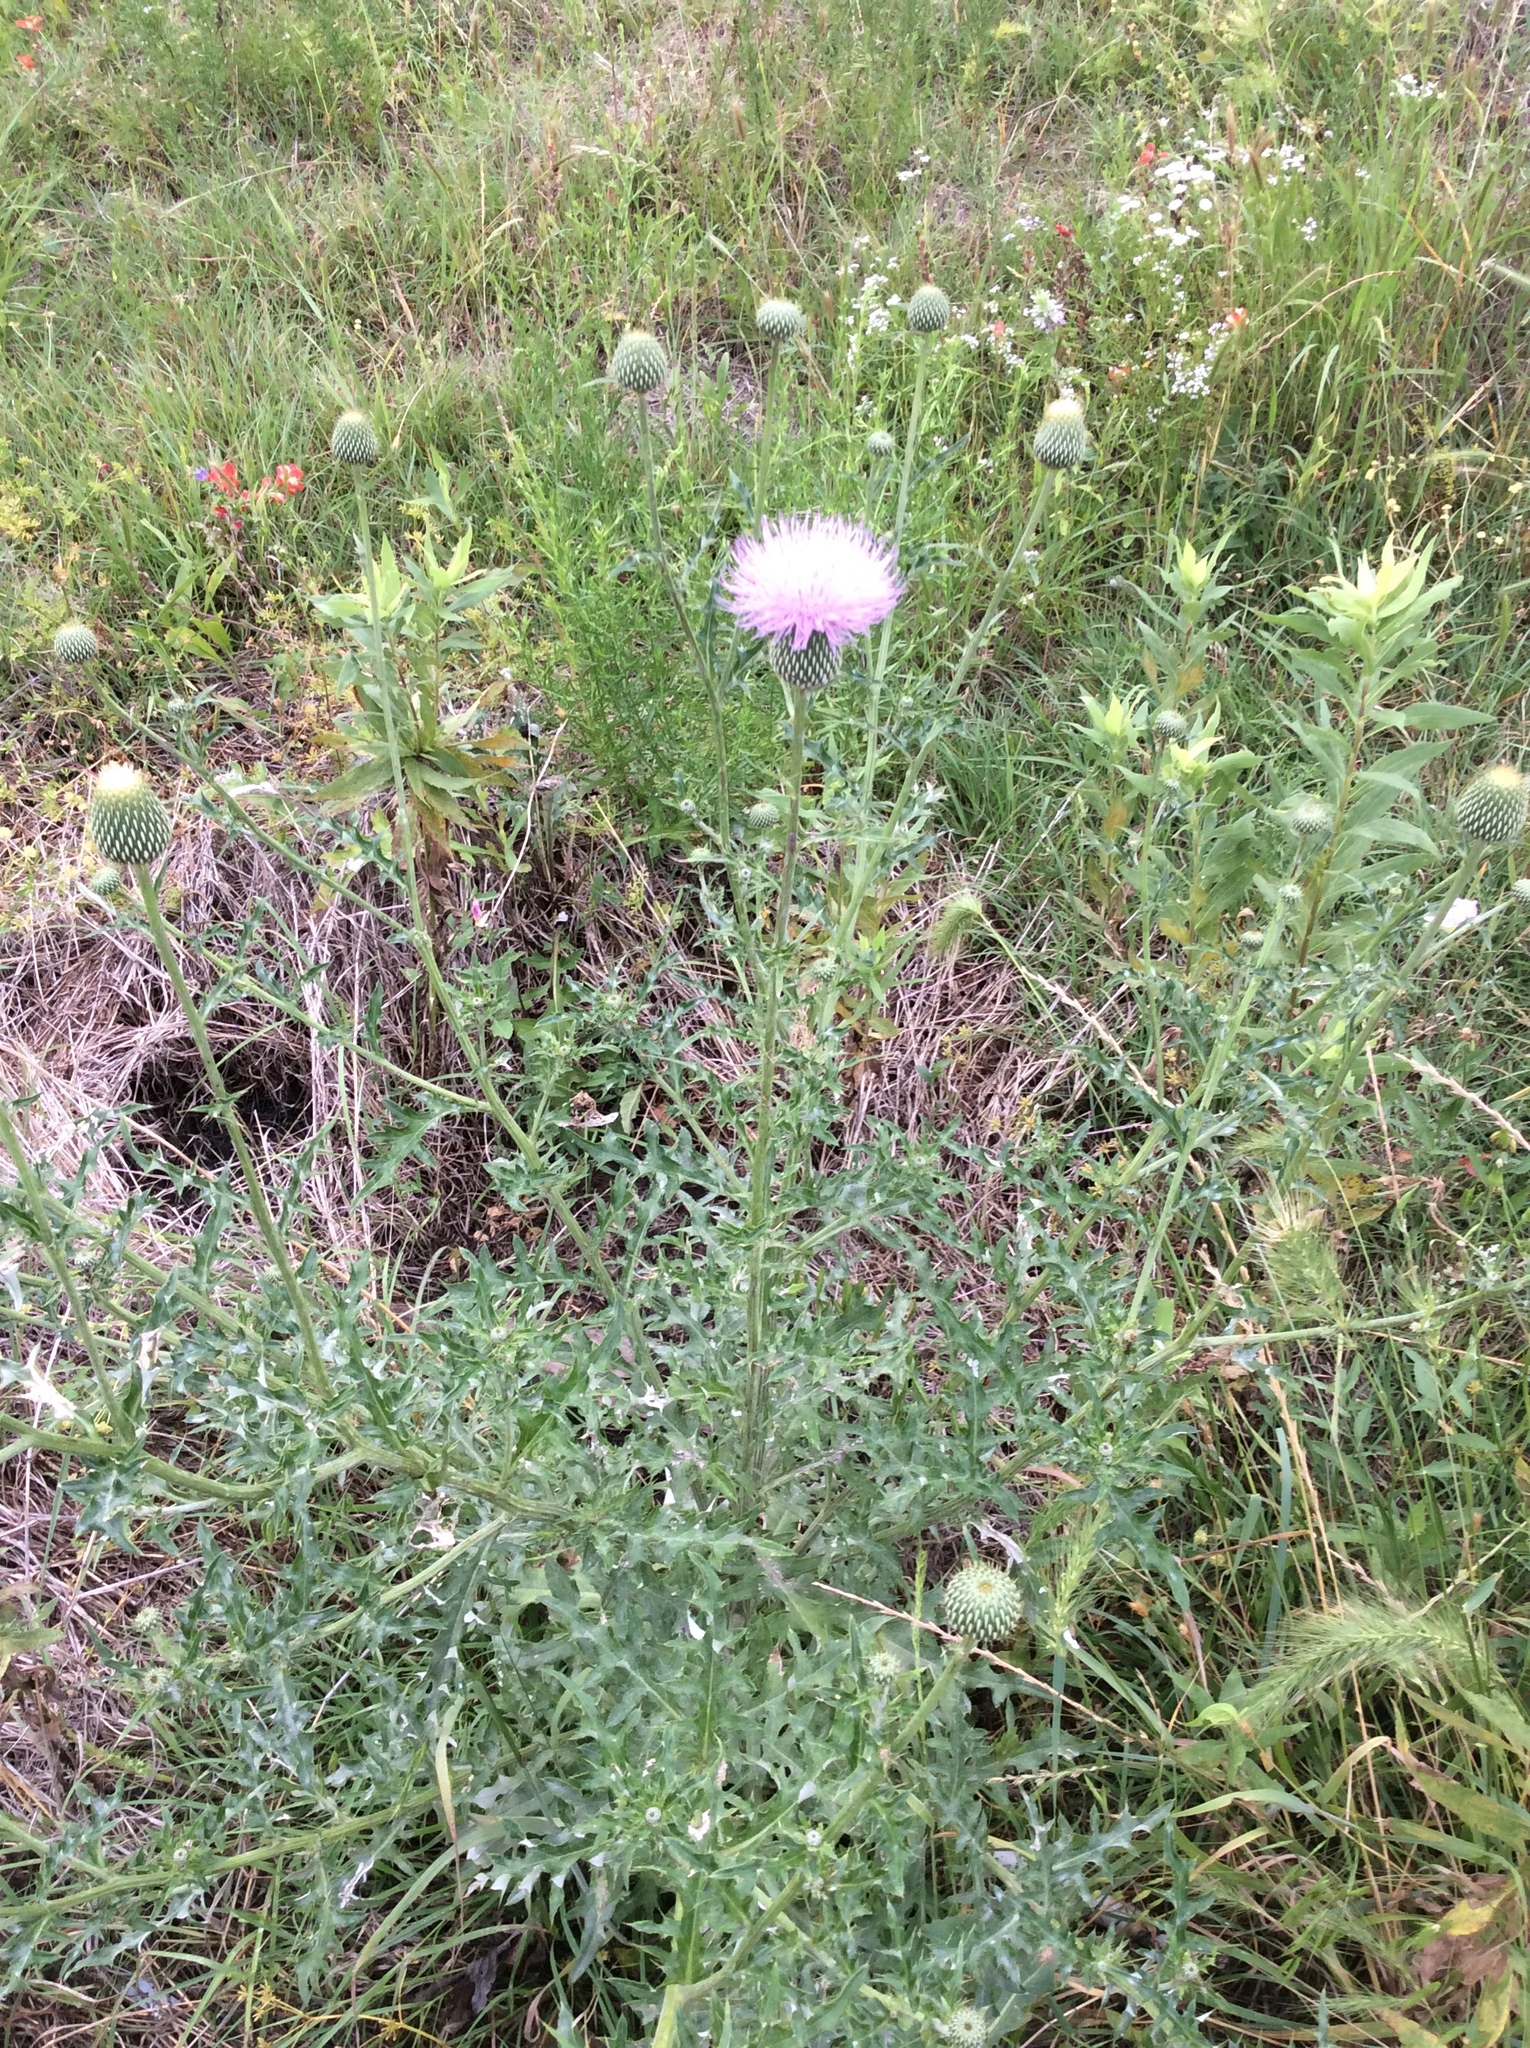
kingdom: Plantae
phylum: Tracheophyta
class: Magnoliopsida
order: Asterales
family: Asteraceae
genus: Cirsium
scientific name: Cirsium texanum
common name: Texas purple thistle
